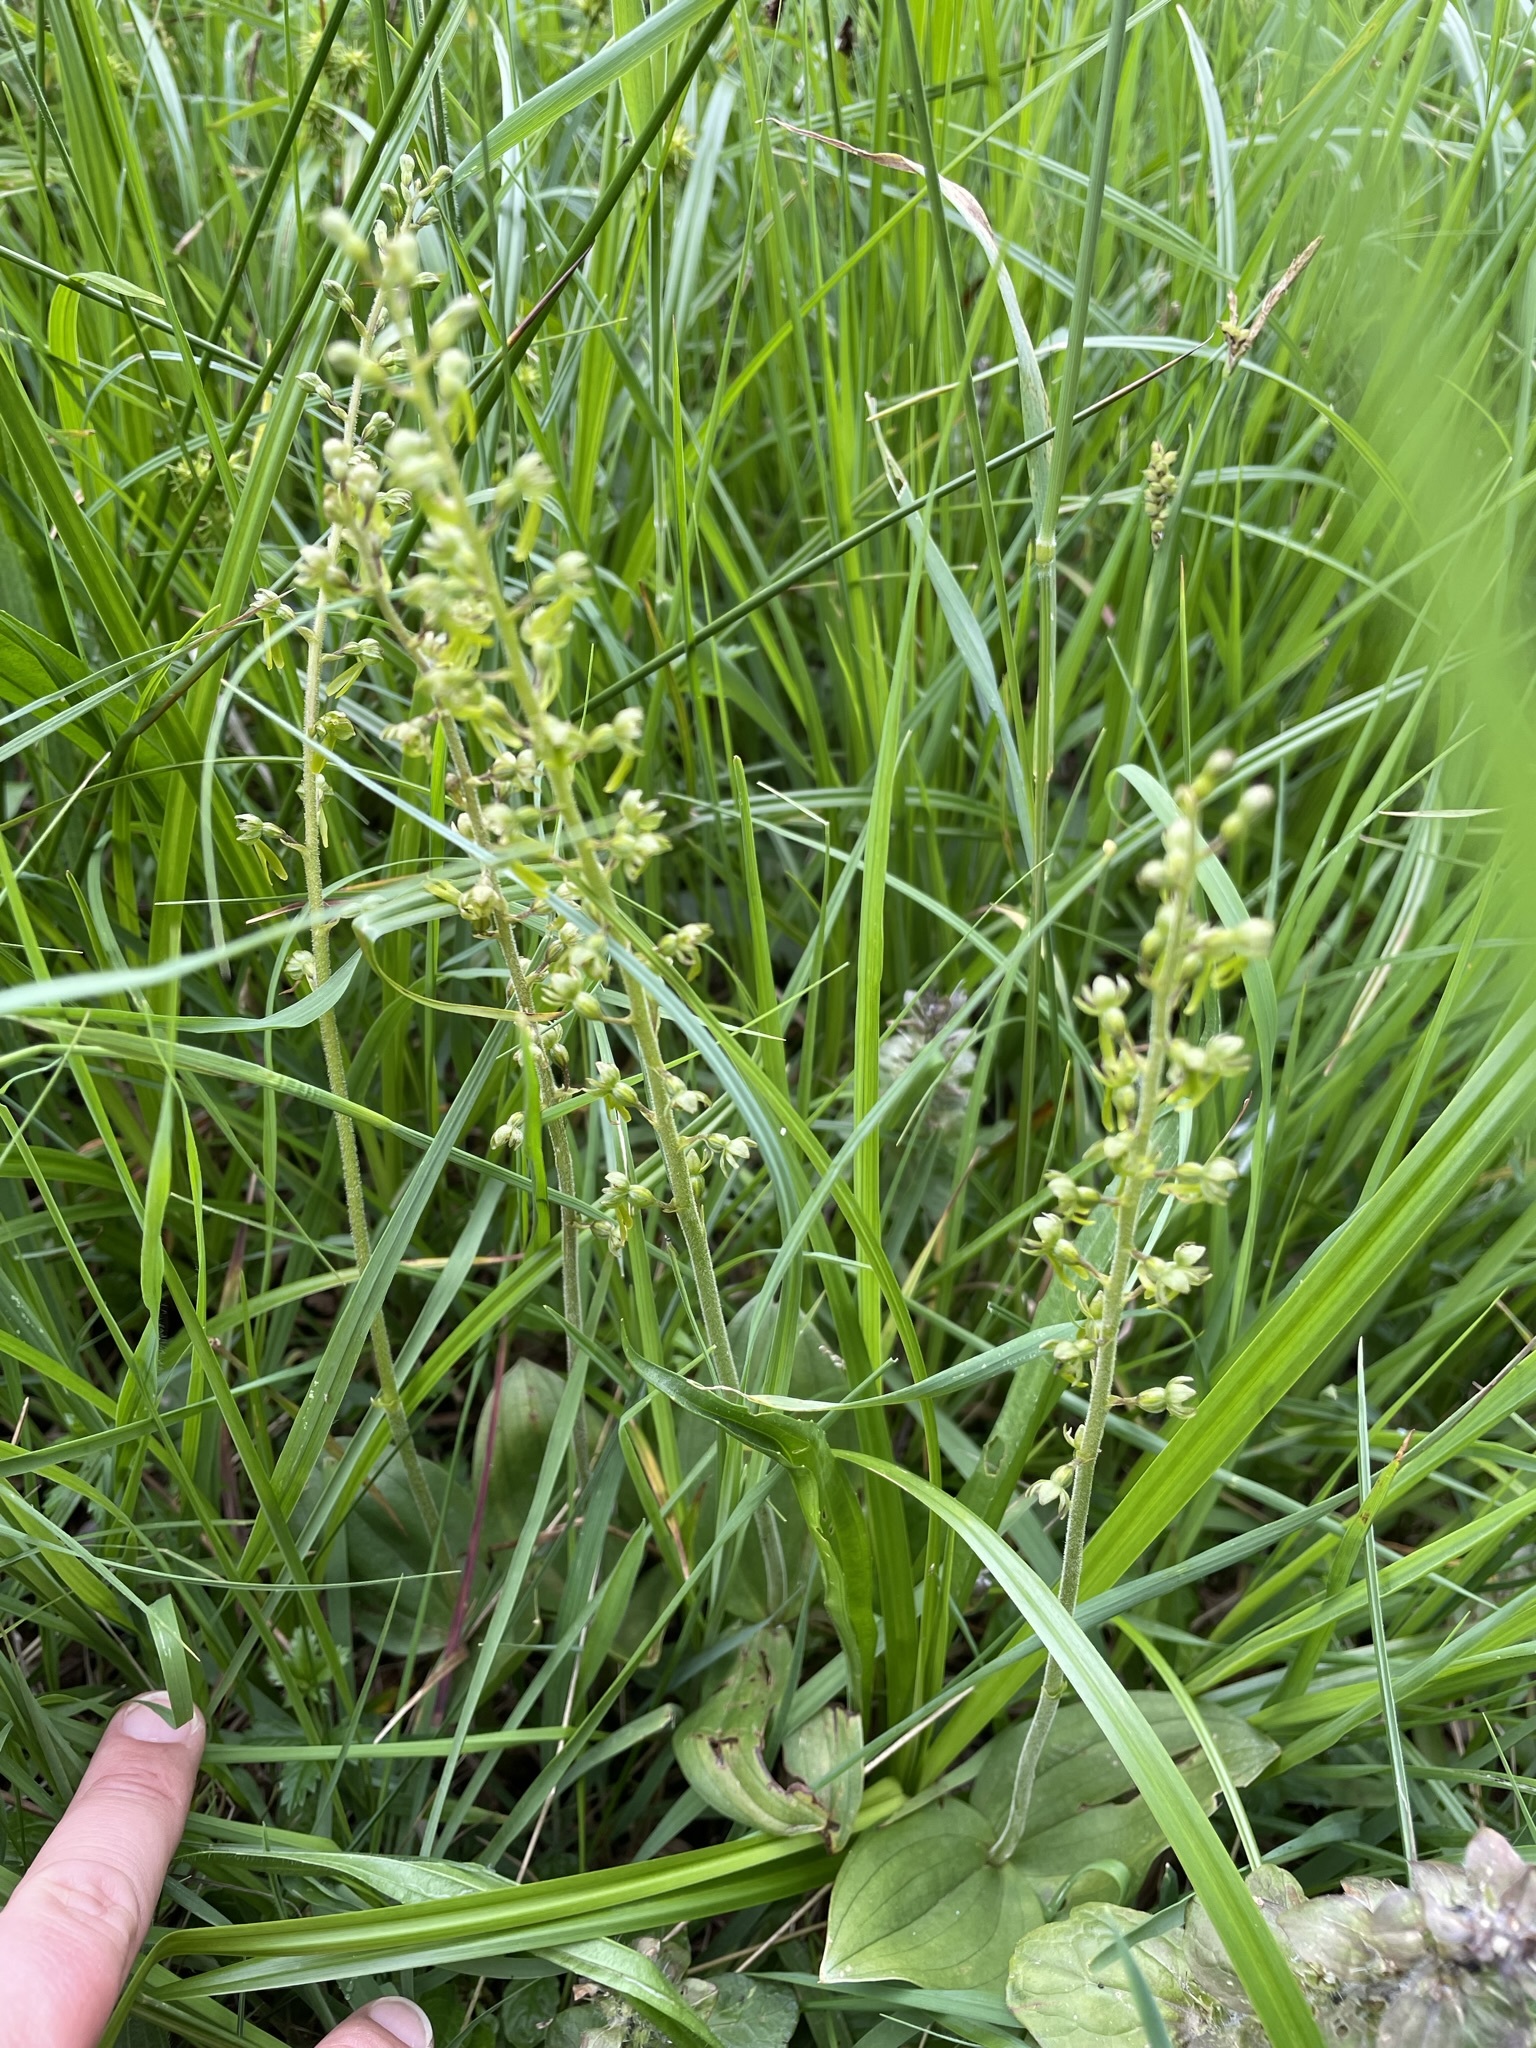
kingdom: Plantae
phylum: Tracheophyta
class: Liliopsida
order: Asparagales
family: Orchidaceae
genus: Neottia
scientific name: Neottia ovata
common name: Common twayblade
